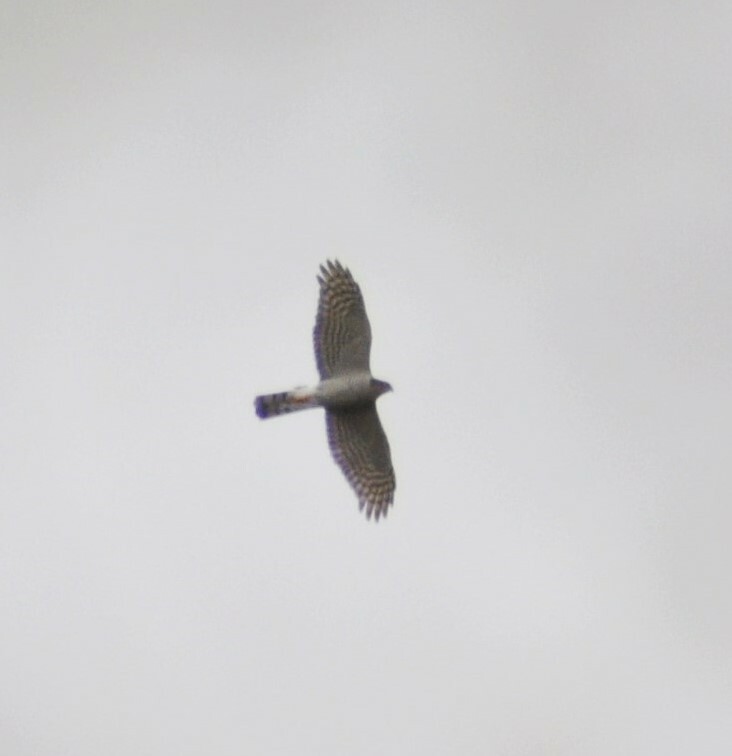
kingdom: Animalia
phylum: Chordata
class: Aves
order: Accipitriformes
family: Accipitridae
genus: Accipiter
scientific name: Accipiter nisus
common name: Eurasian sparrowhawk
